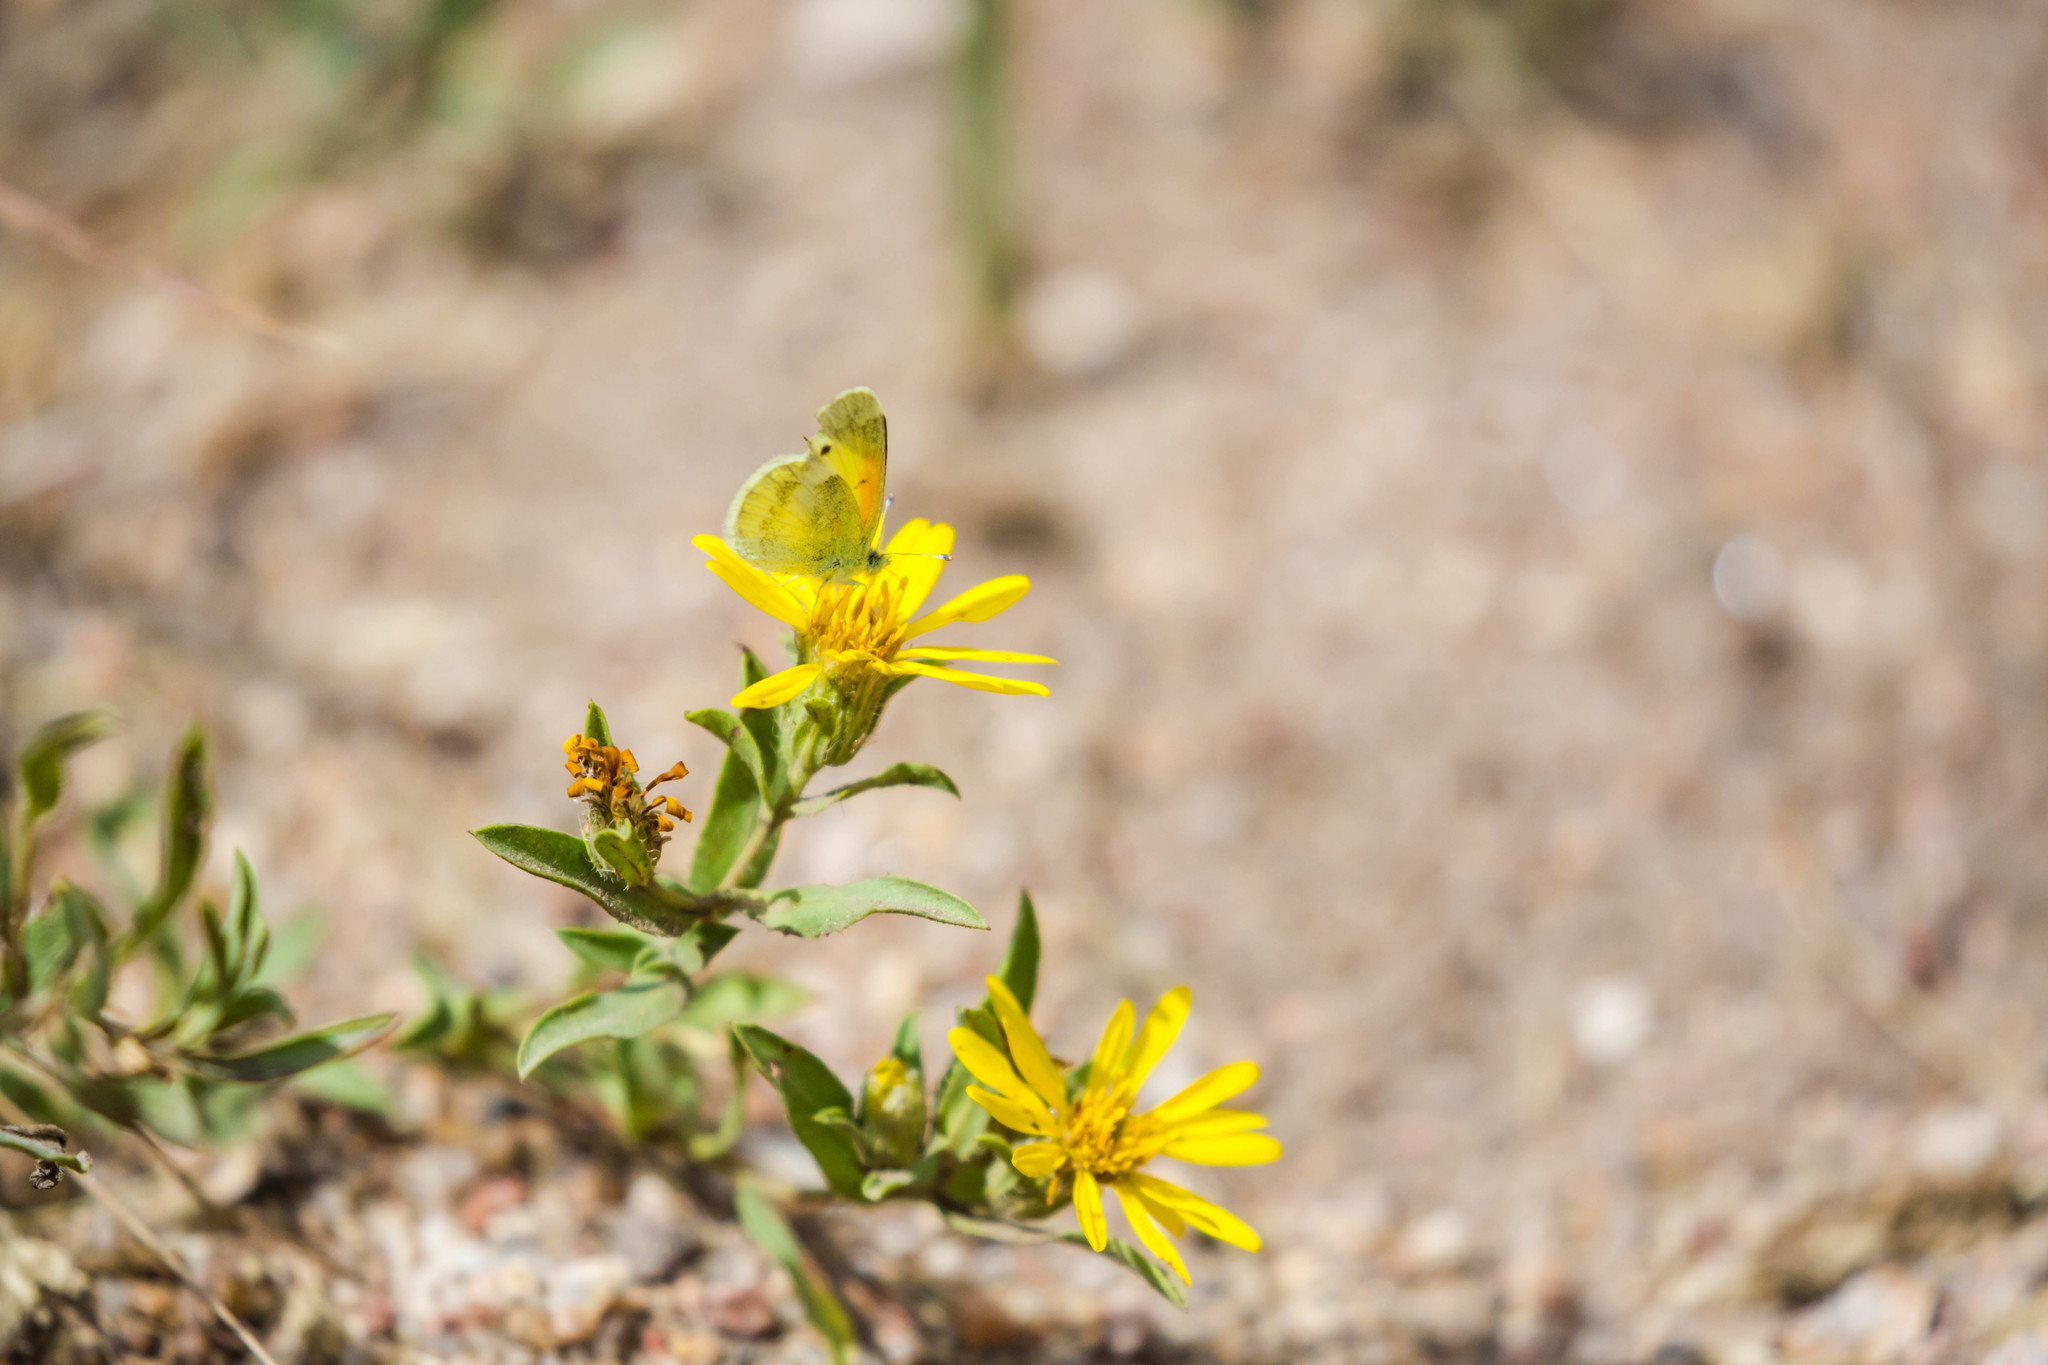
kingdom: Animalia
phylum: Arthropoda
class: Insecta
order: Lepidoptera
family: Pieridae
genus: Nathalis
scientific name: Nathalis iole
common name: Dainty sulphur
